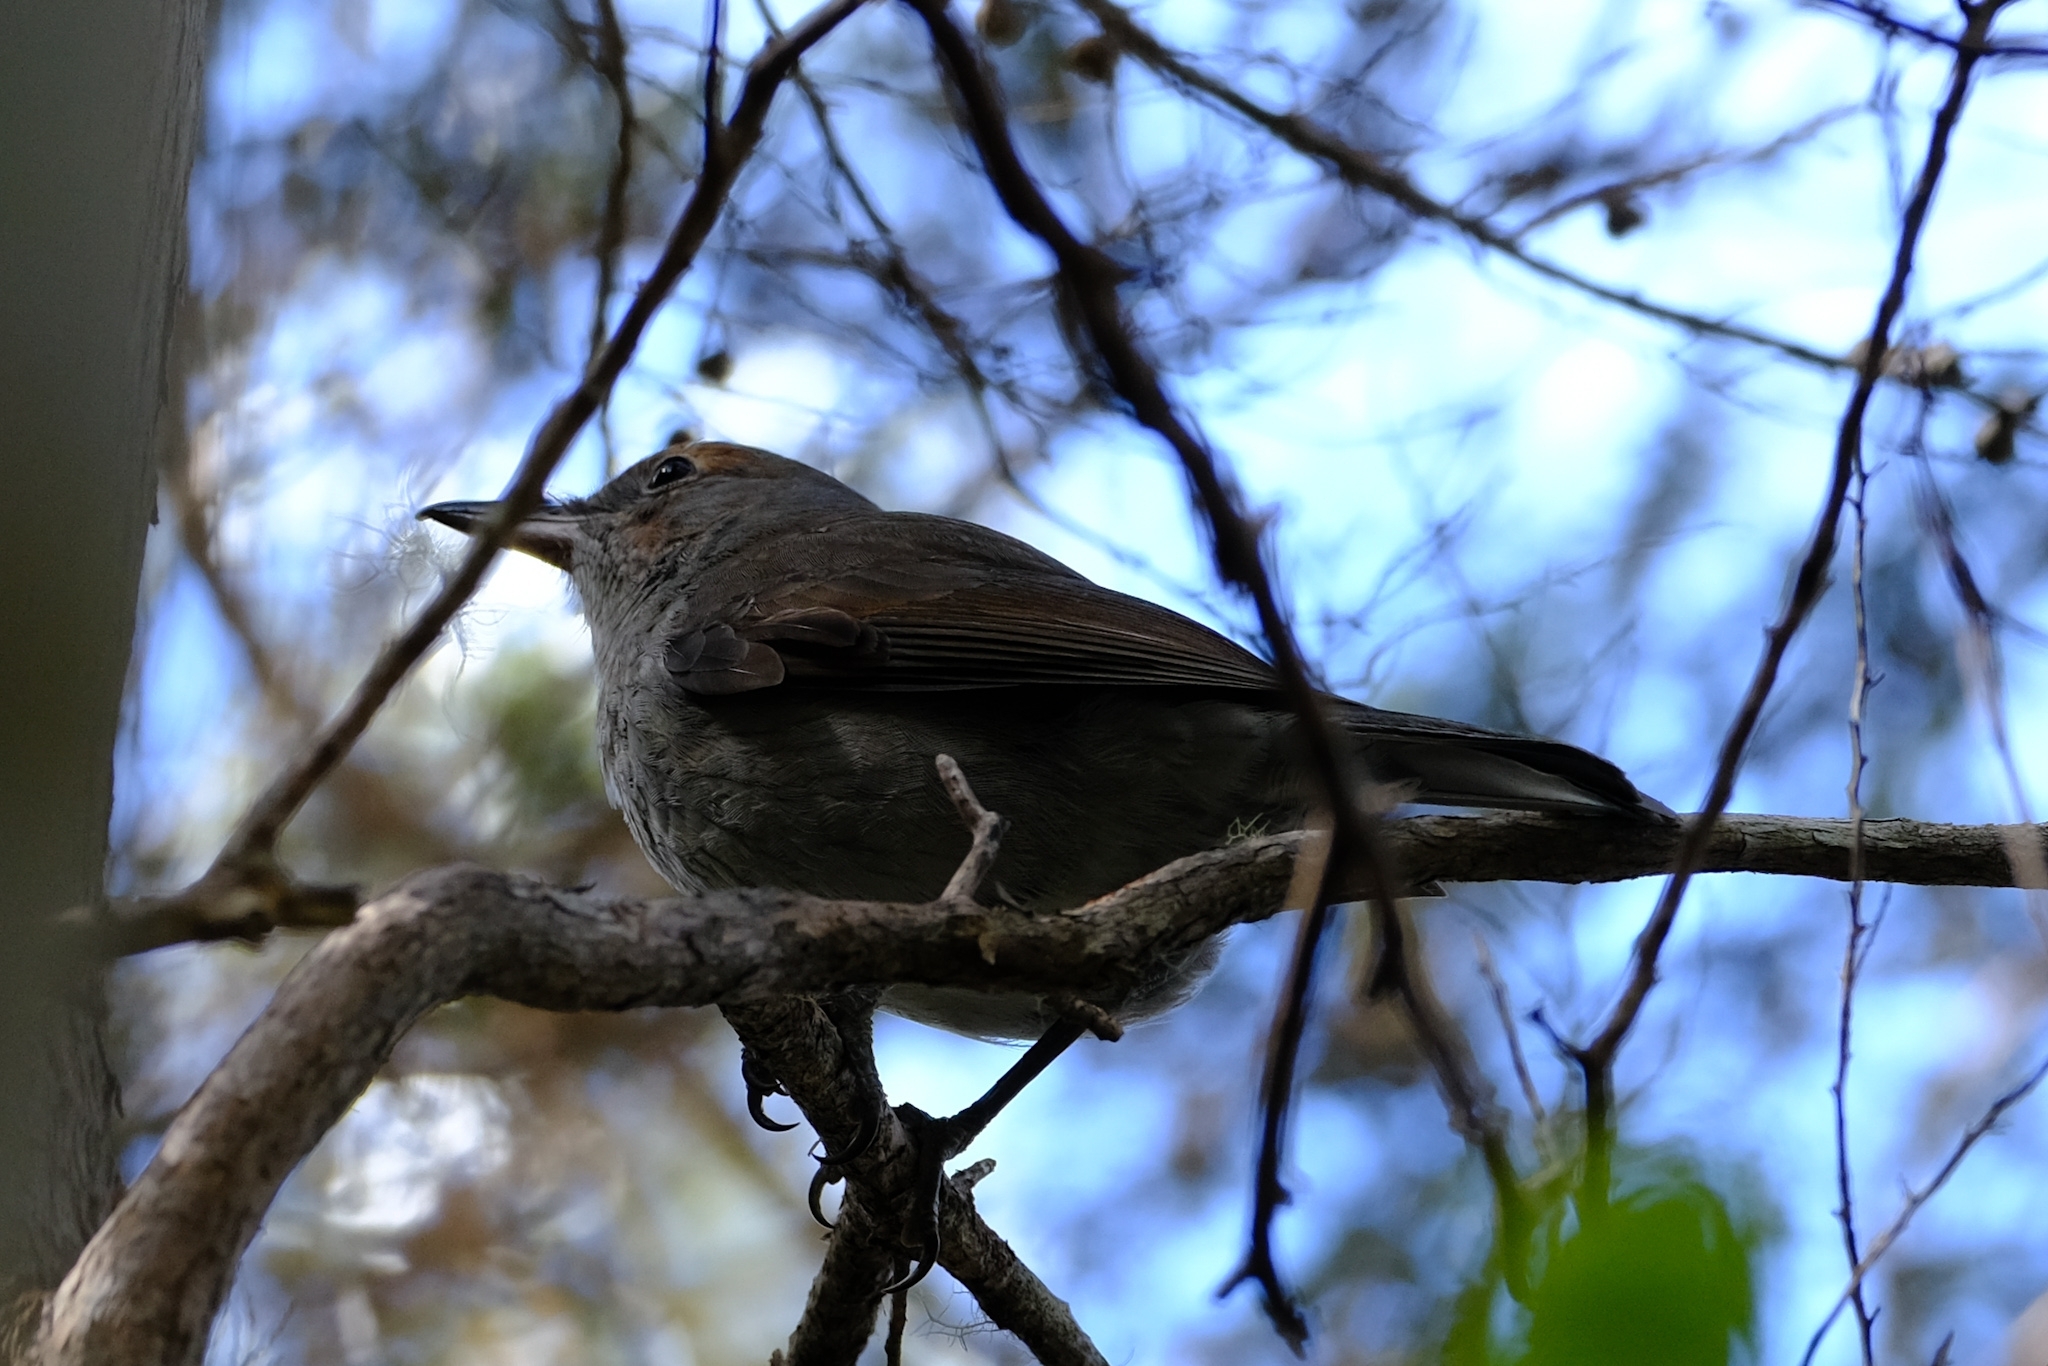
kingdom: Animalia
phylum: Chordata
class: Aves
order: Passeriformes
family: Pachycephalidae
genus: Colluricincla
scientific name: Colluricincla harmonica
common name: Grey shrikethrush
